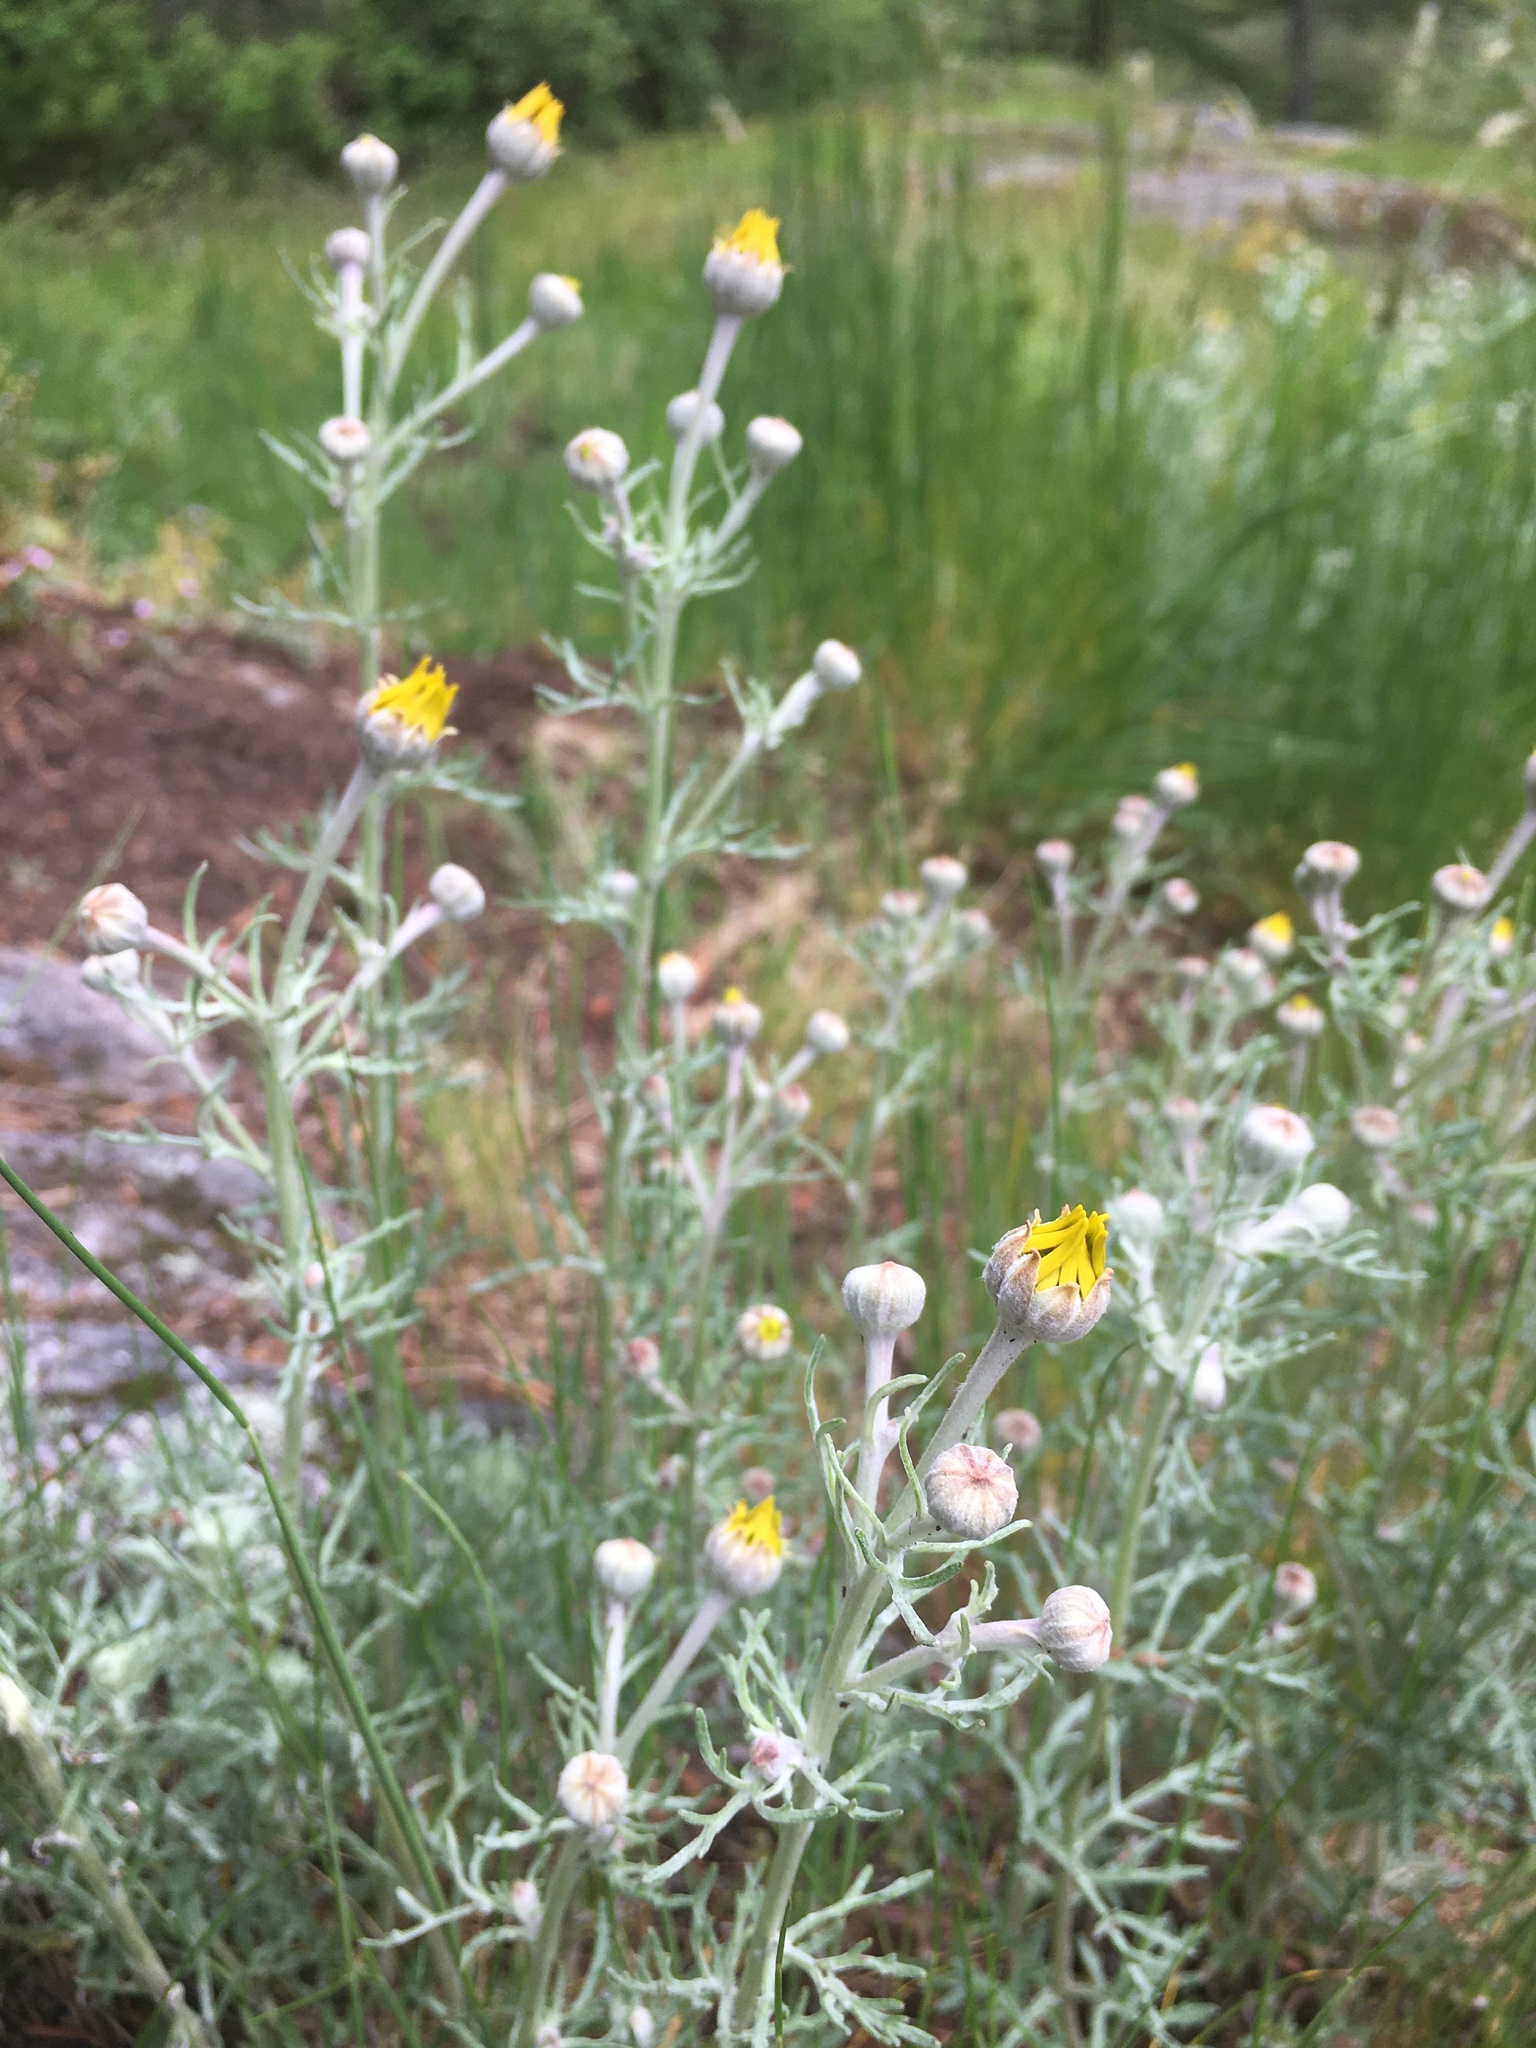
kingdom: Plantae
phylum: Tracheophyta
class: Magnoliopsida
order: Asterales
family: Asteraceae
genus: Eriophyllum
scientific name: Eriophyllum lanatum
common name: Common woolly-sunflower
